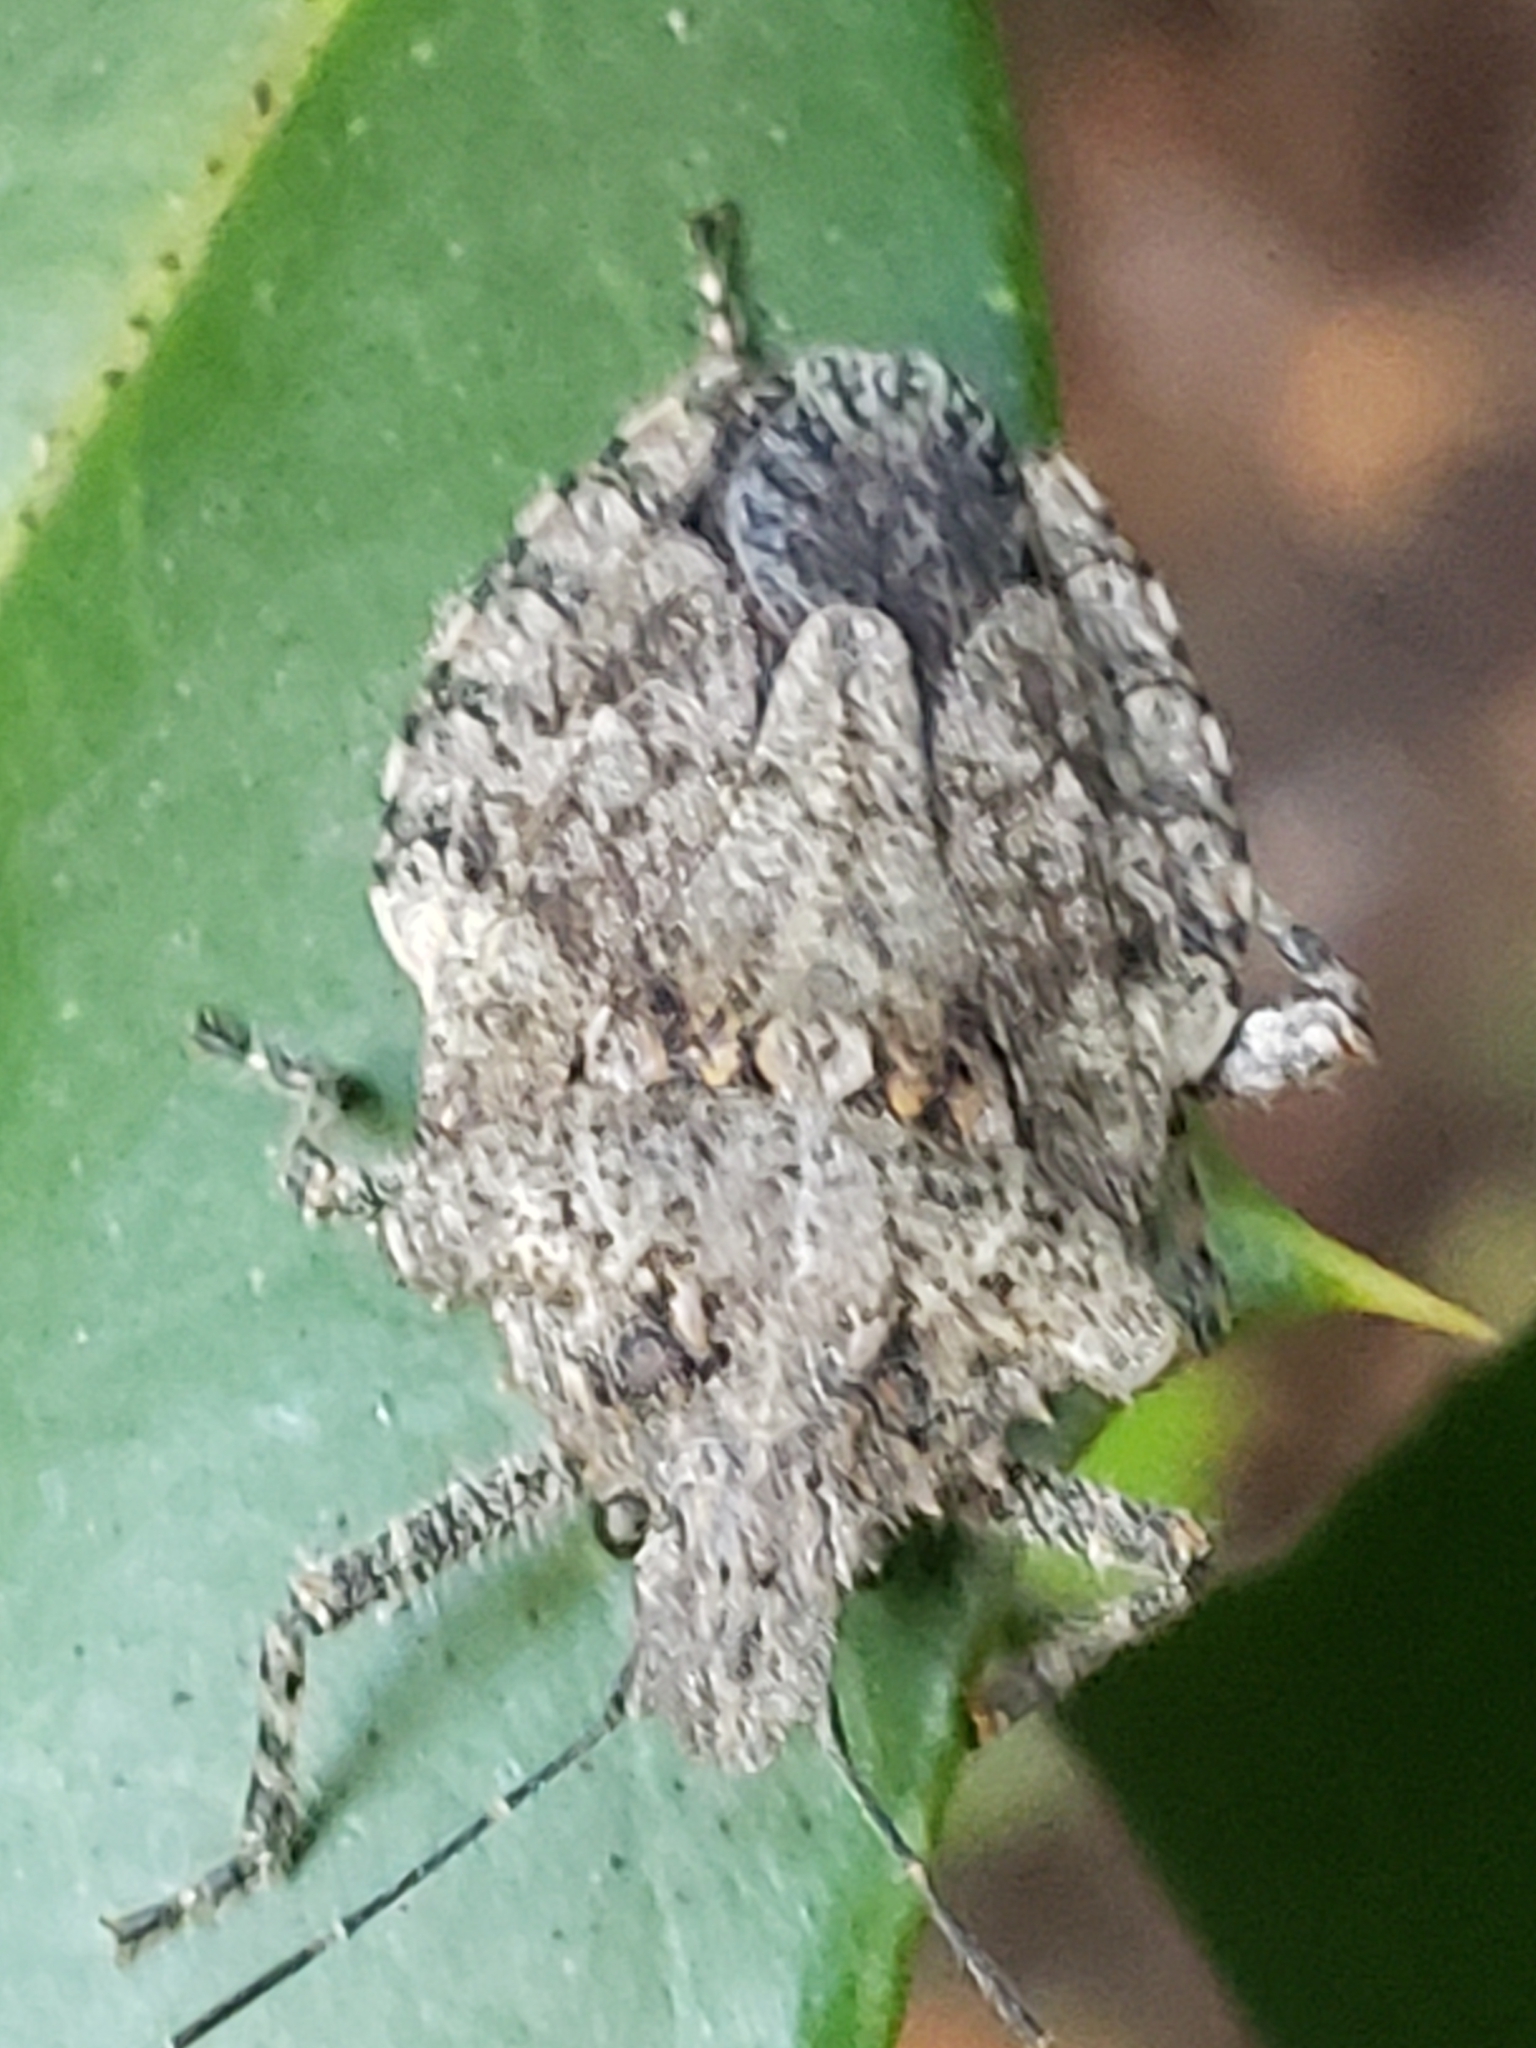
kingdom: Animalia
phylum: Arthropoda
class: Insecta
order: Hemiptera
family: Pentatomidae
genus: Brochymena
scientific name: Brochymena arborea
